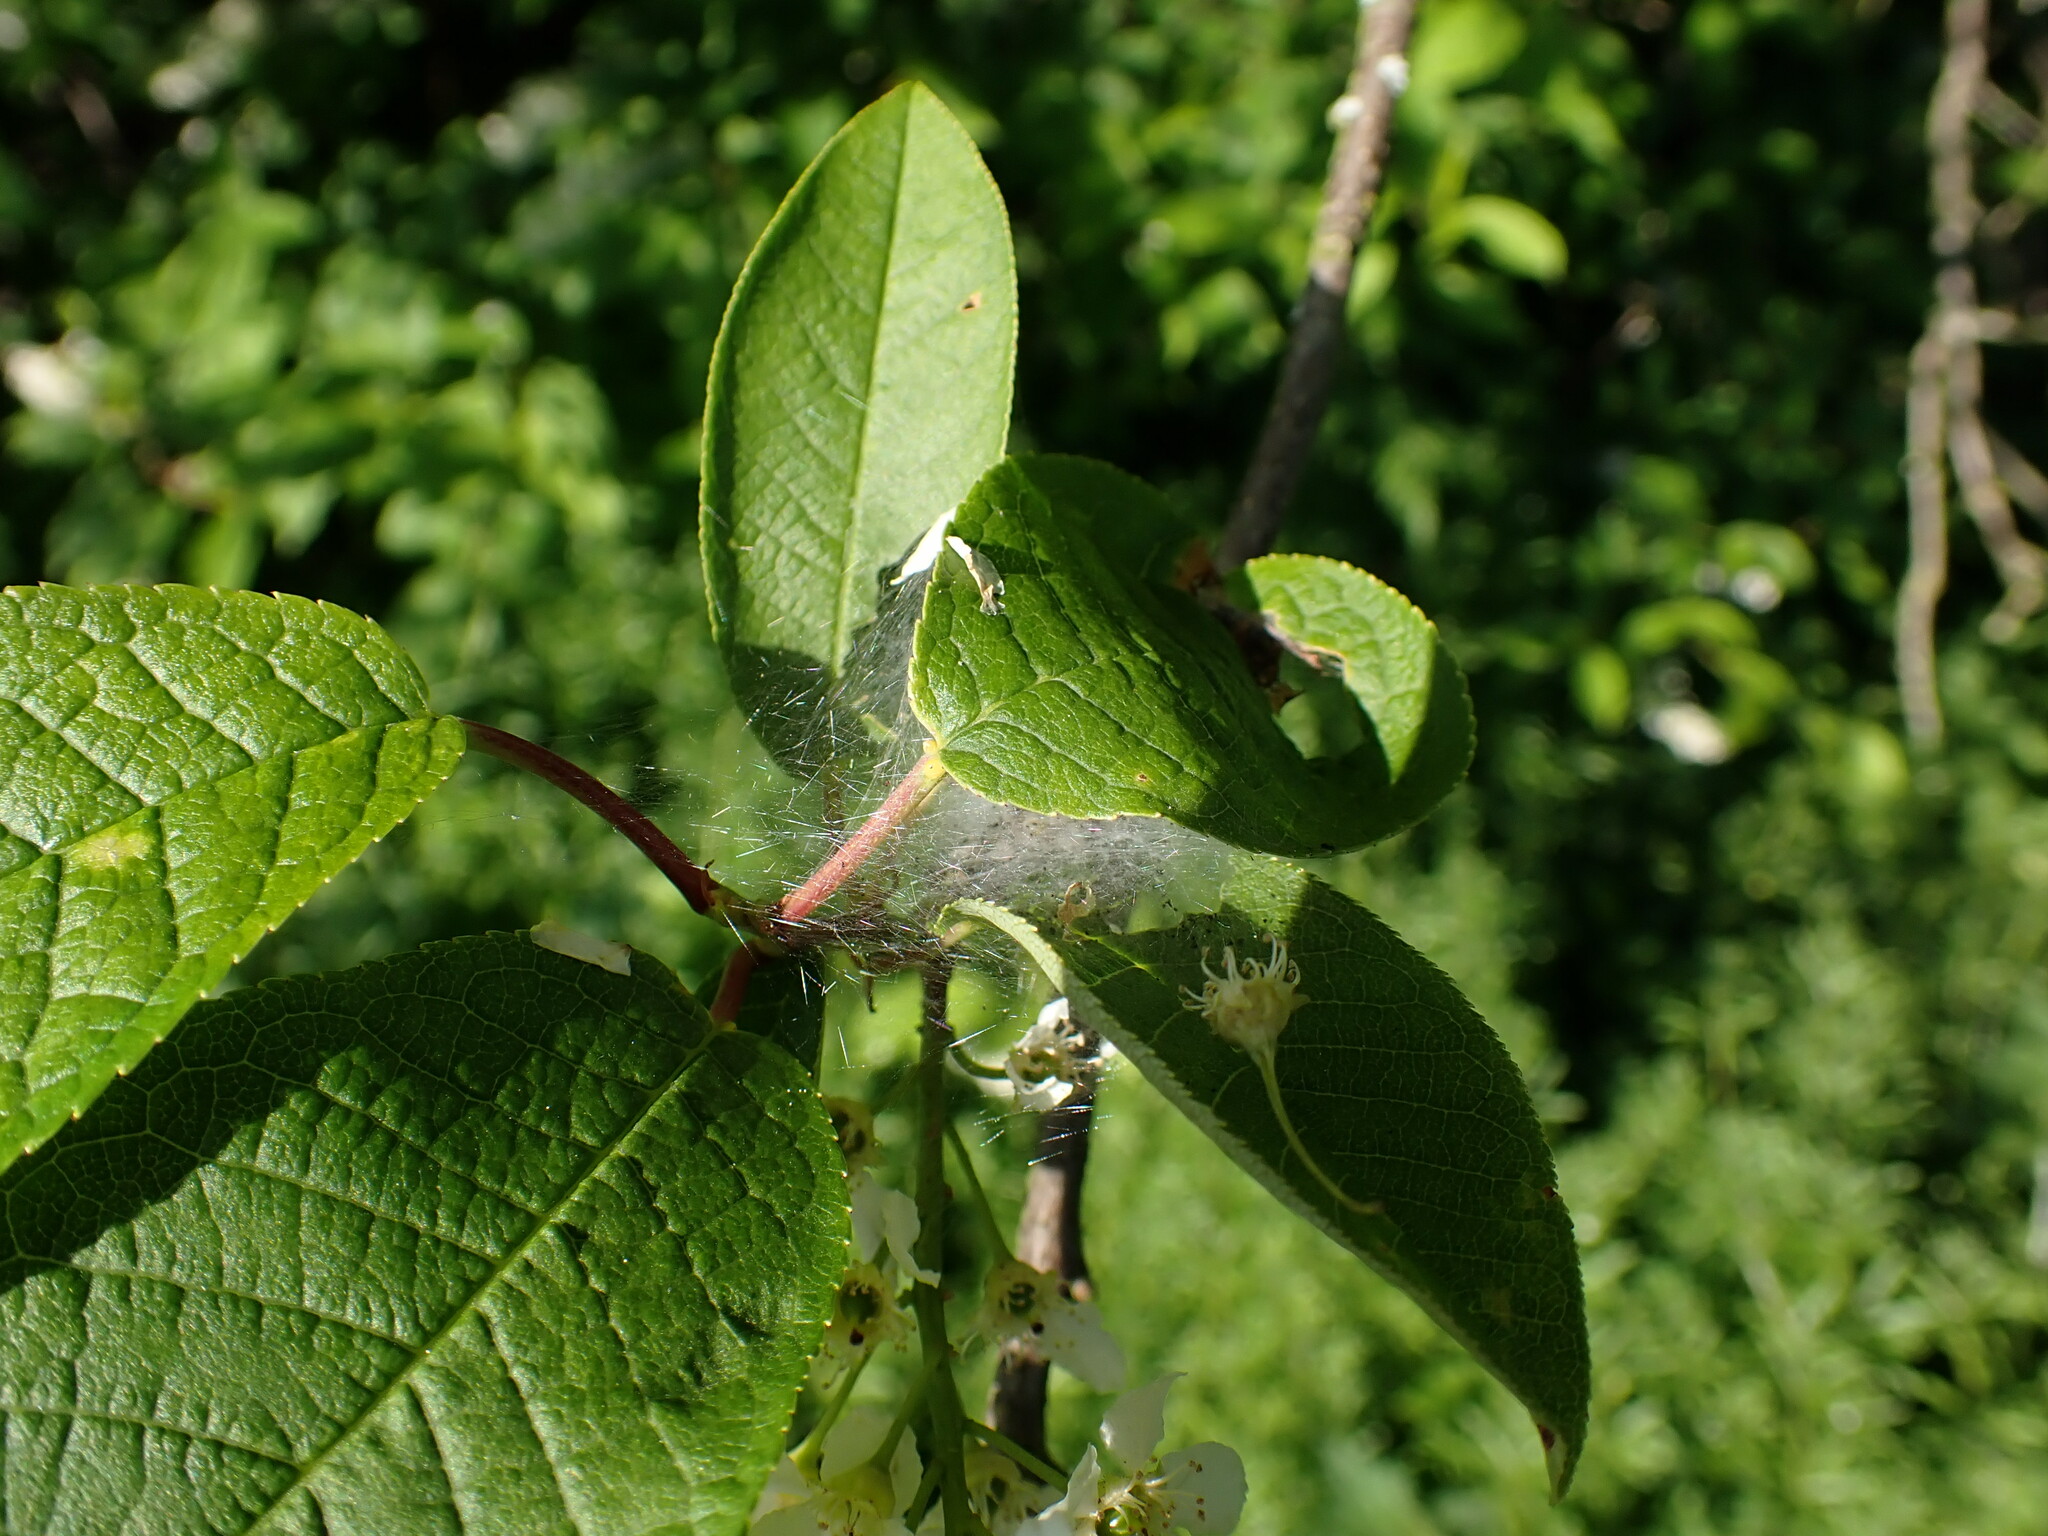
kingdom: Animalia
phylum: Arthropoda
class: Insecta
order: Lepidoptera
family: Yponomeutidae
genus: Yponomeuta
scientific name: Yponomeuta evonymella
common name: Bird-cherry ermine
